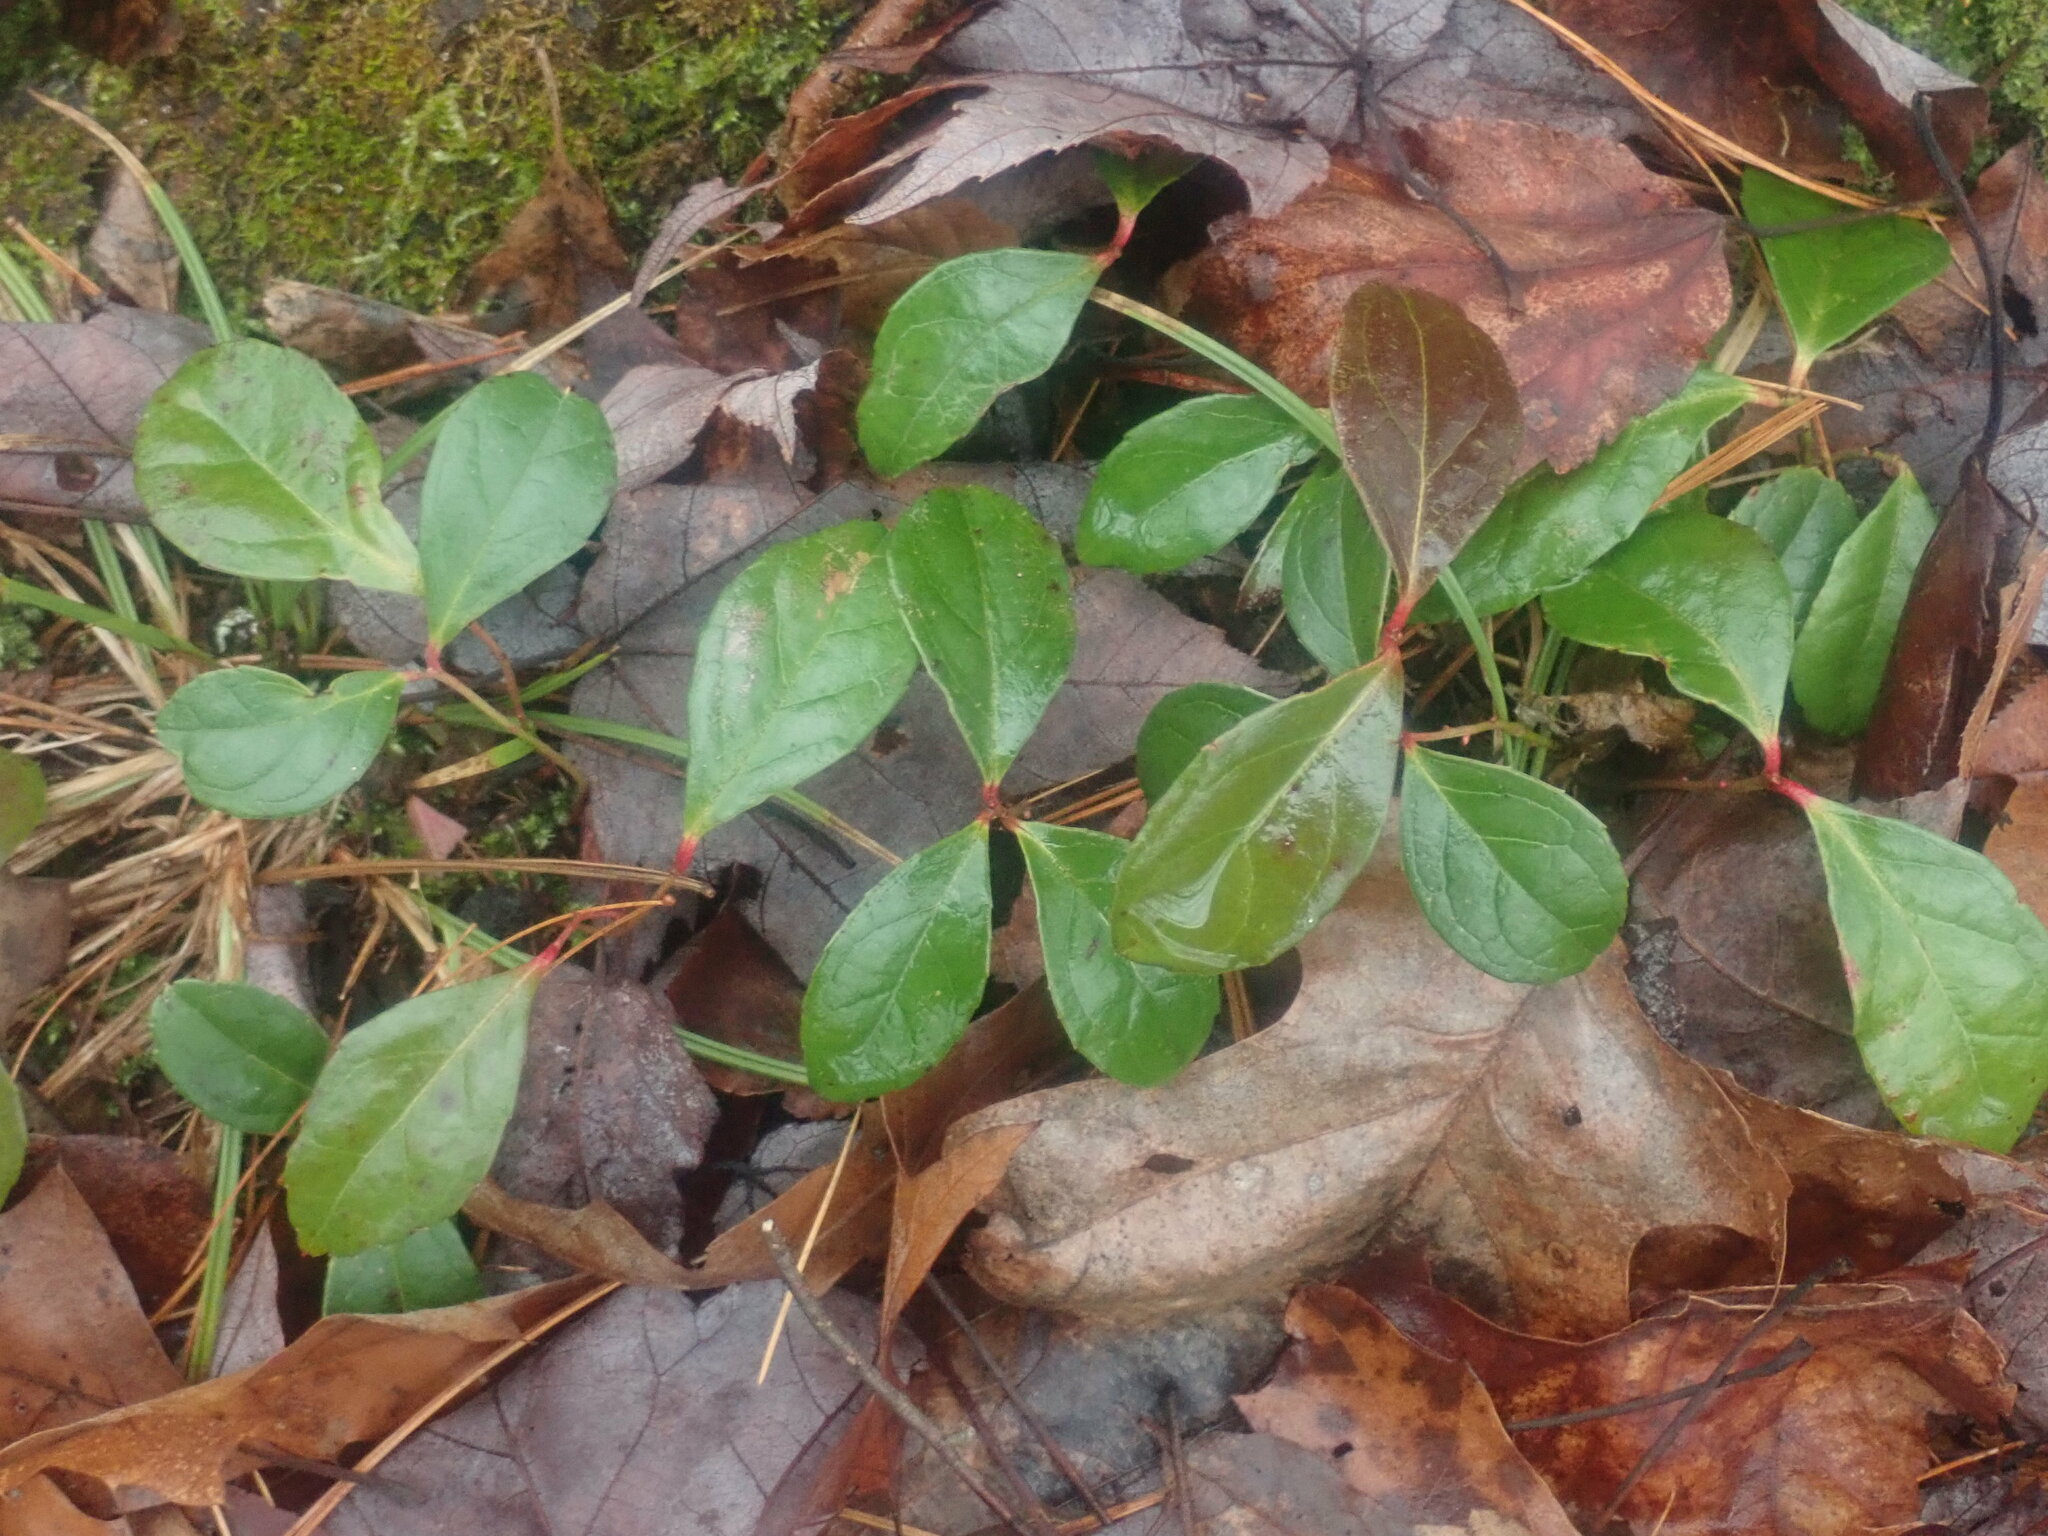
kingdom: Plantae
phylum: Tracheophyta
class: Magnoliopsida
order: Ericales
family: Ericaceae
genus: Gaultheria
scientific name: Gaultheria procumbens
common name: Checkerberry
